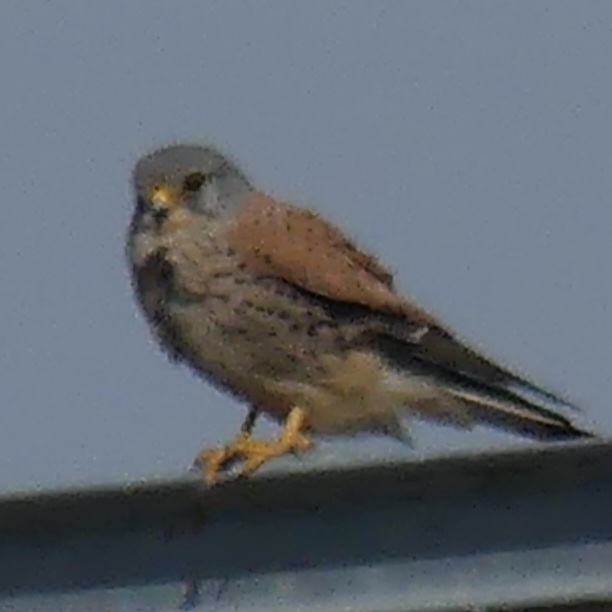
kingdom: Animalia
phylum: Chordata
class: Aves
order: Falconiformes
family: Falconidae
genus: Falco
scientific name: Falco tinnunculus
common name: Common kestrel
